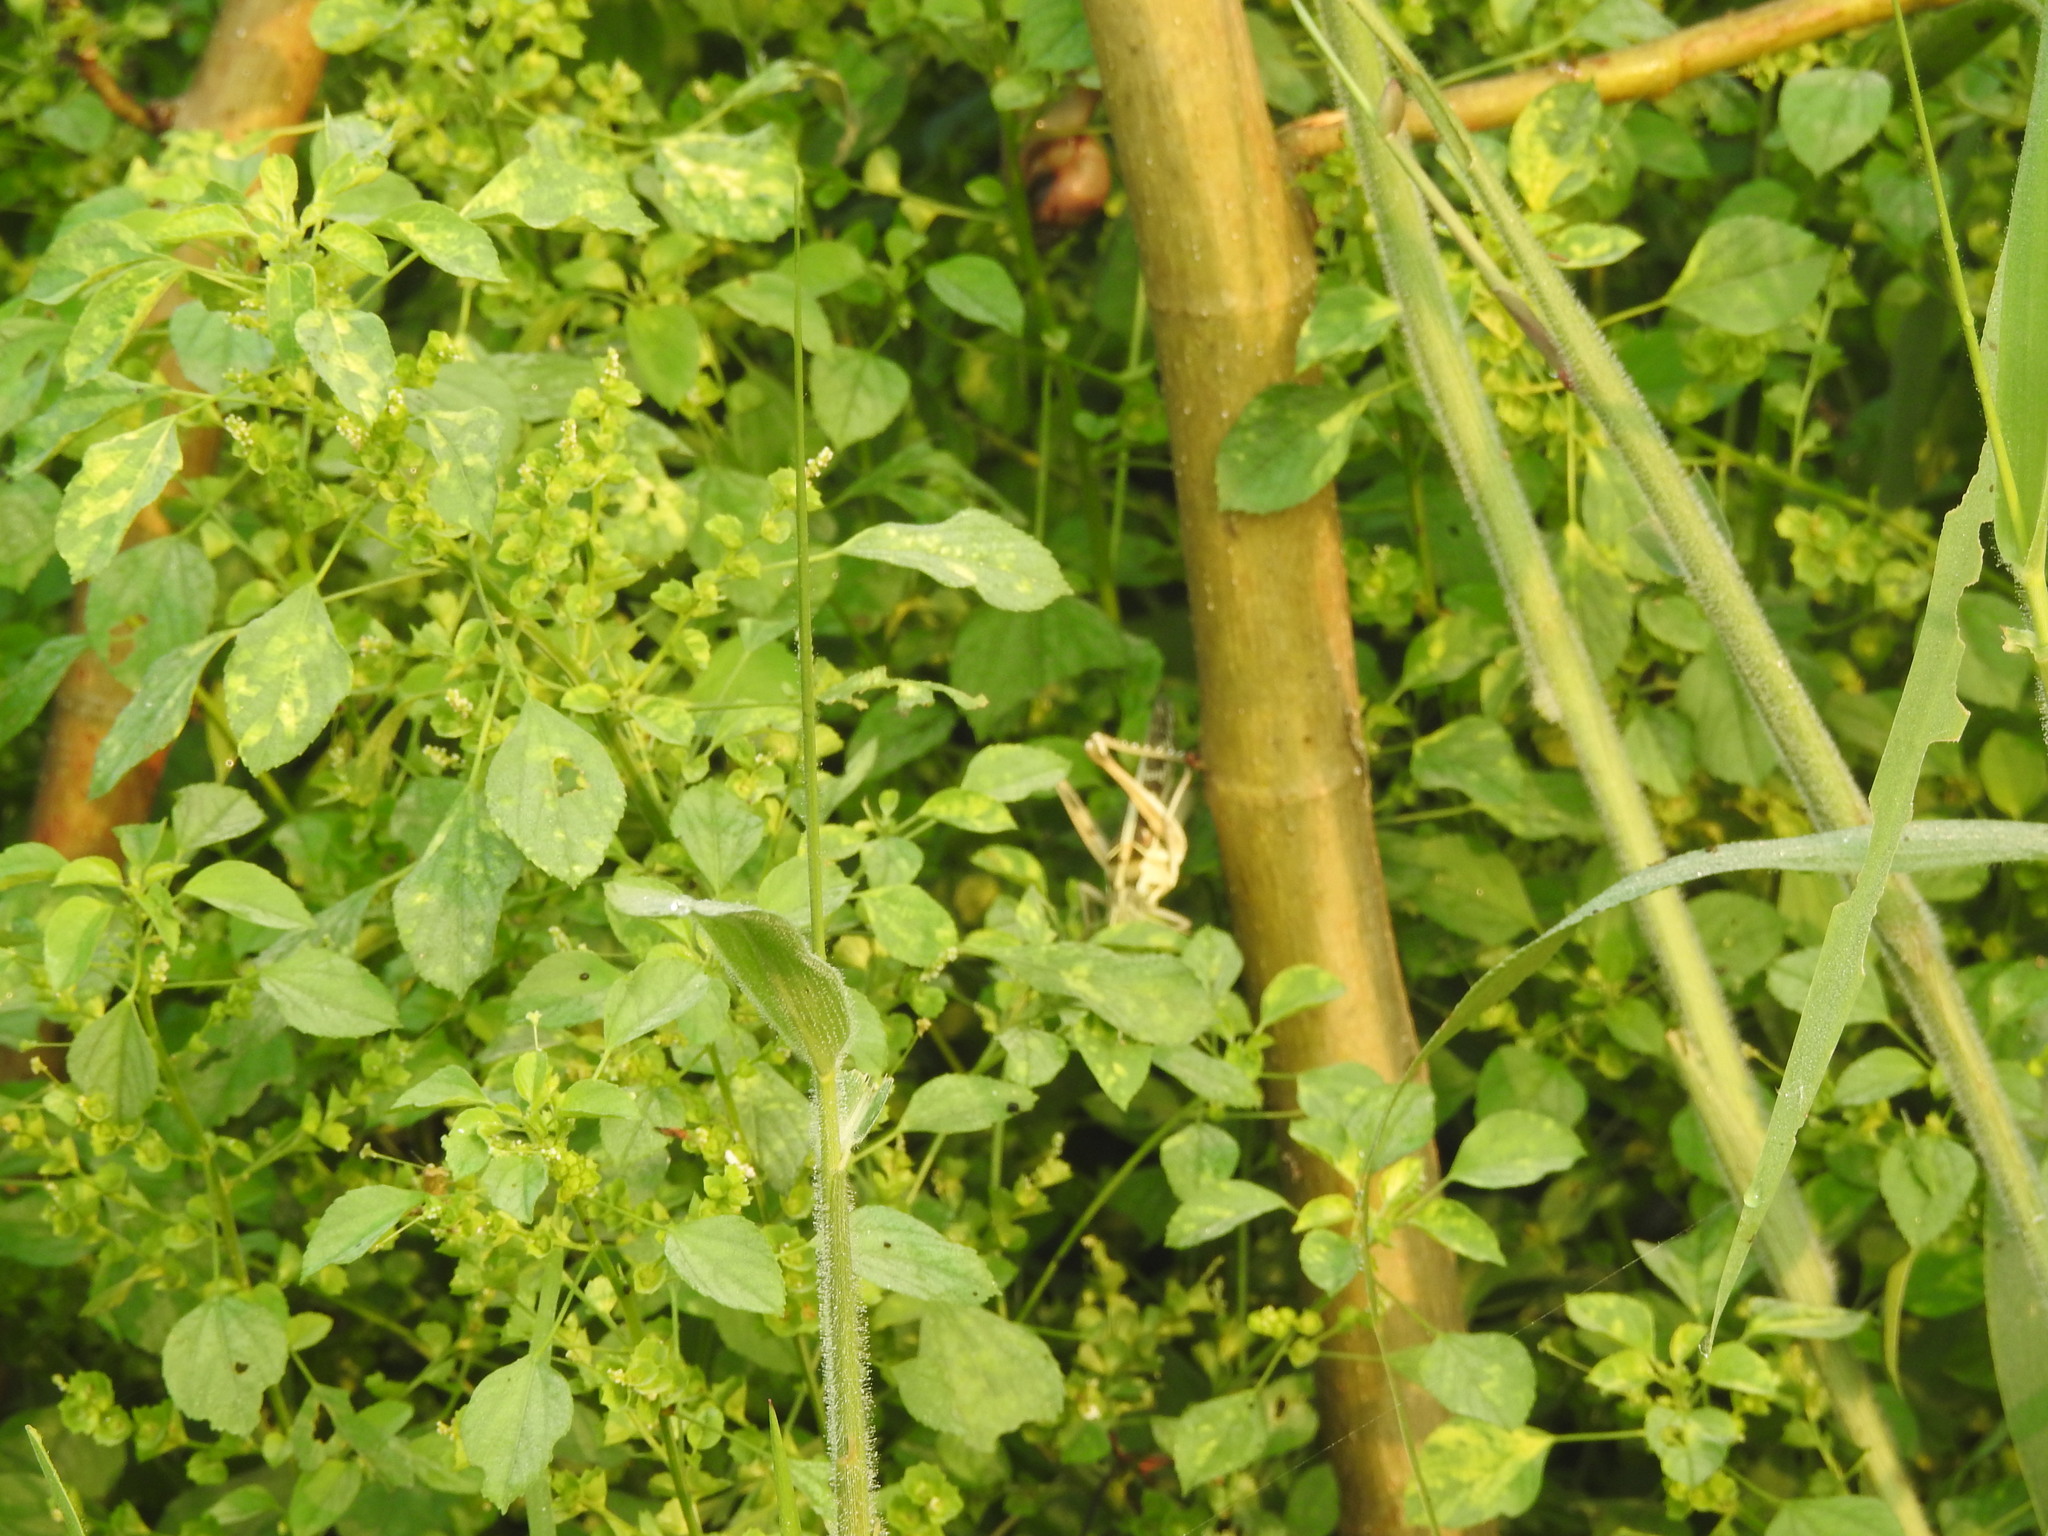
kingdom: Plantae
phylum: Tracheophyta
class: Magnoliopsida
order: Malpighiales
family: Euphorbiaceae
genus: Acalypha
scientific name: Acalypha indica
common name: Indian acalypha
